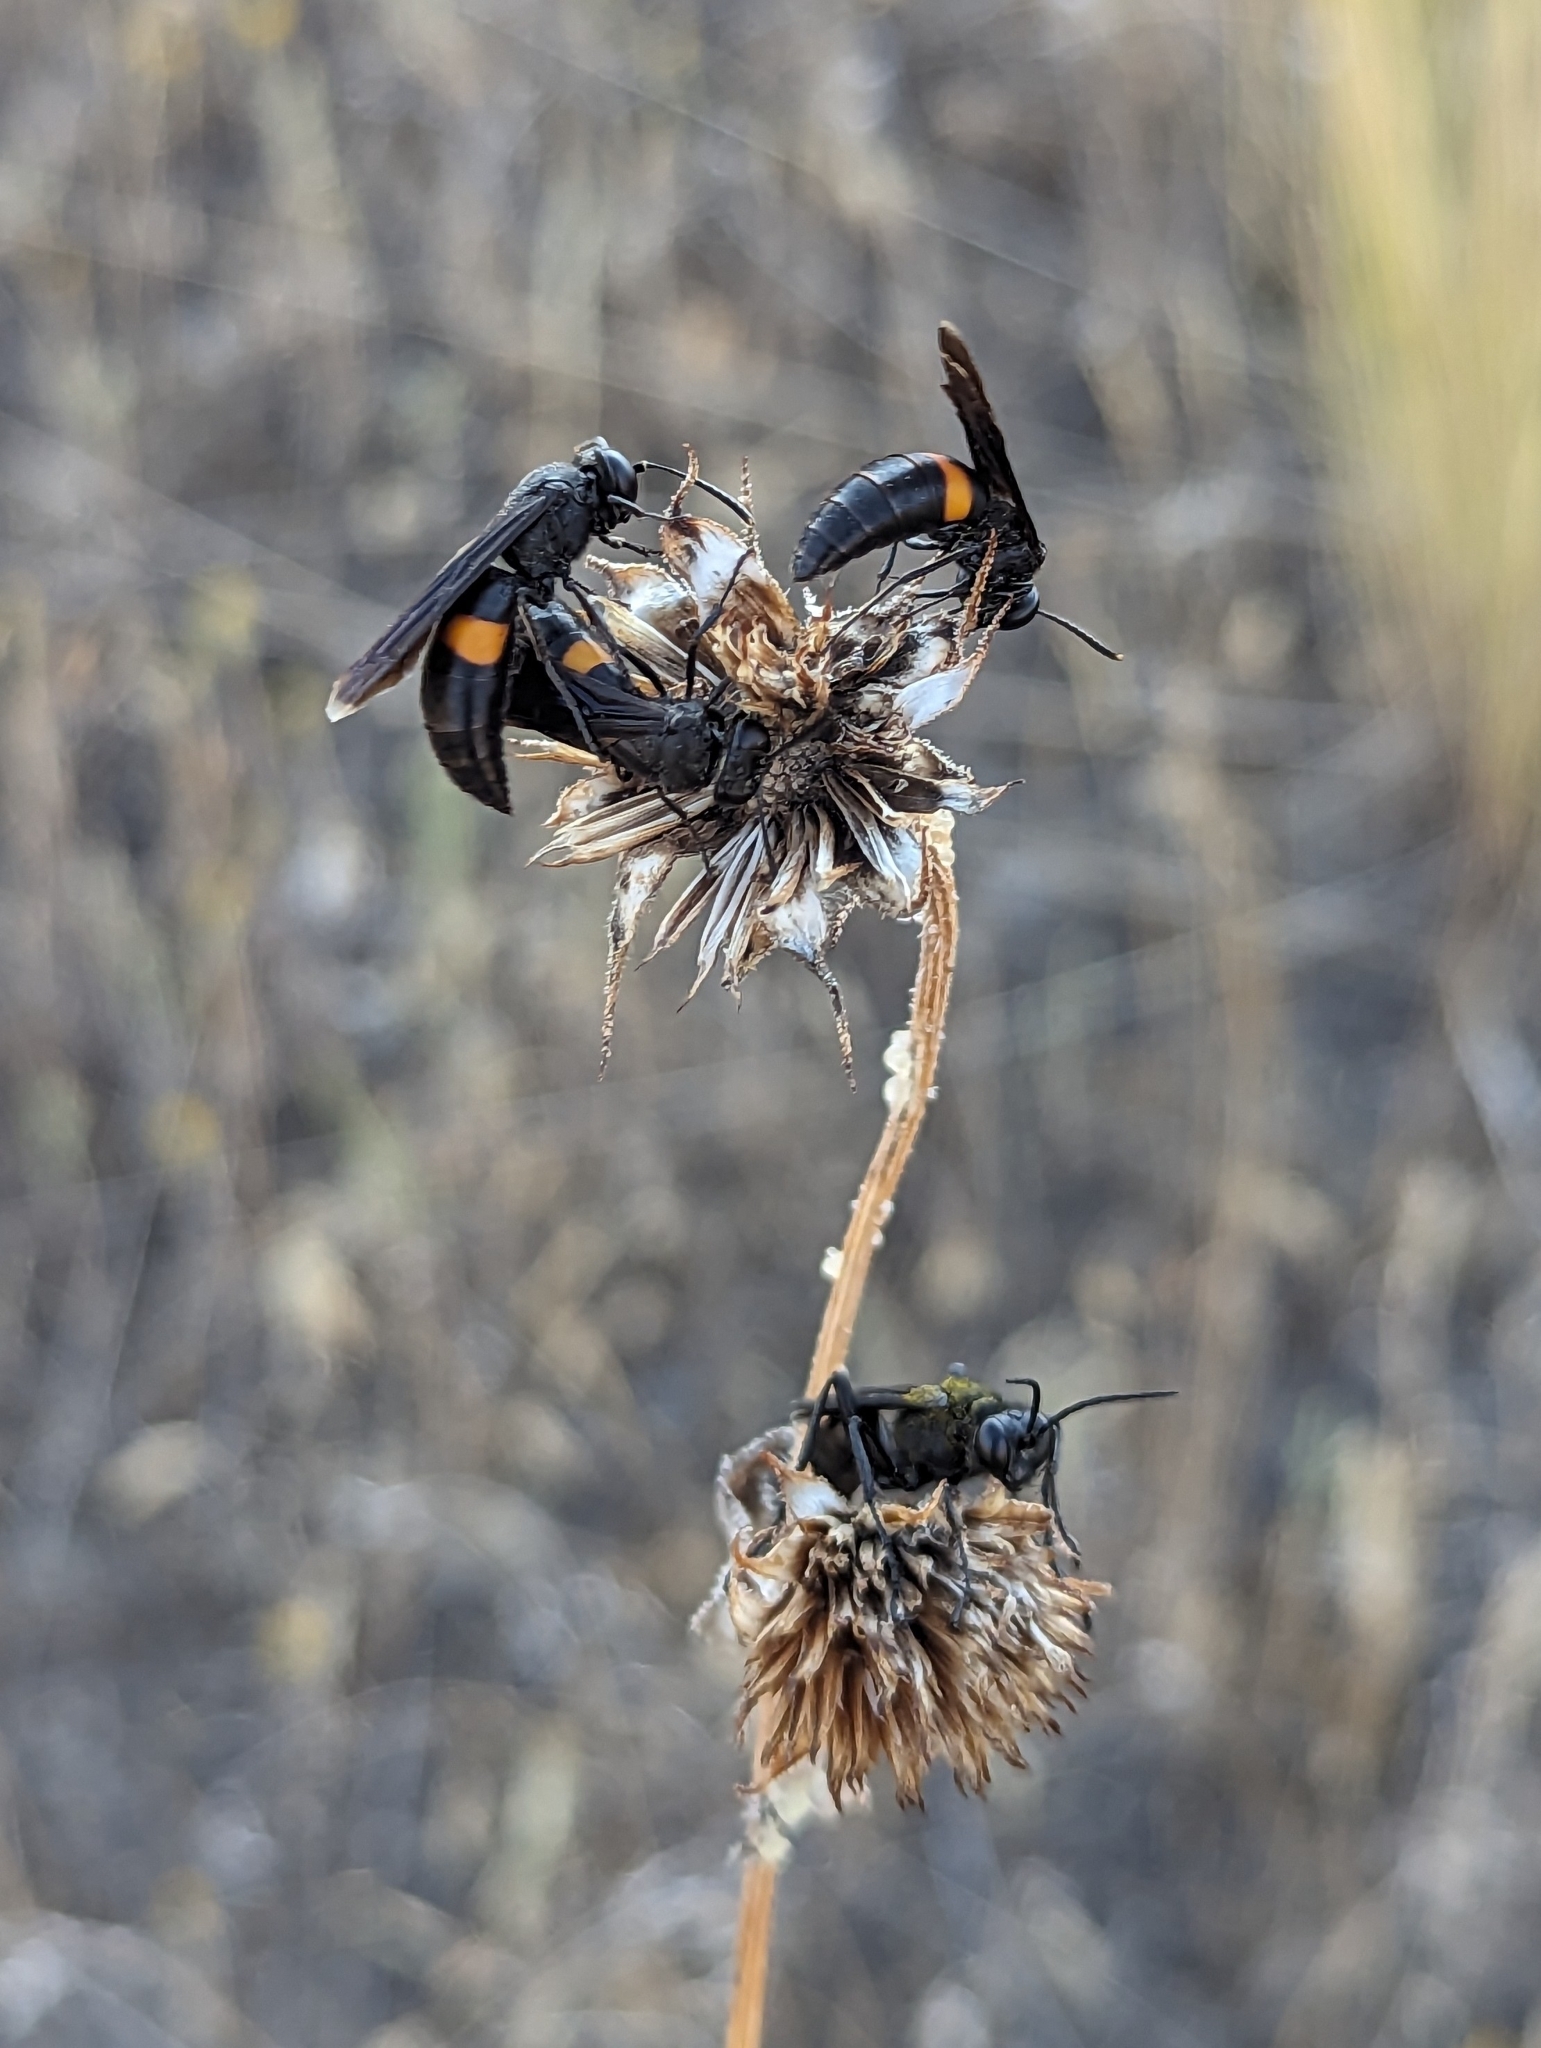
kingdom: Animalia
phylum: Arthropoda
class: Insecta
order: Hymenoptera
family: Crabronidae
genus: Stizoides
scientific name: Stizoides renicinctus
